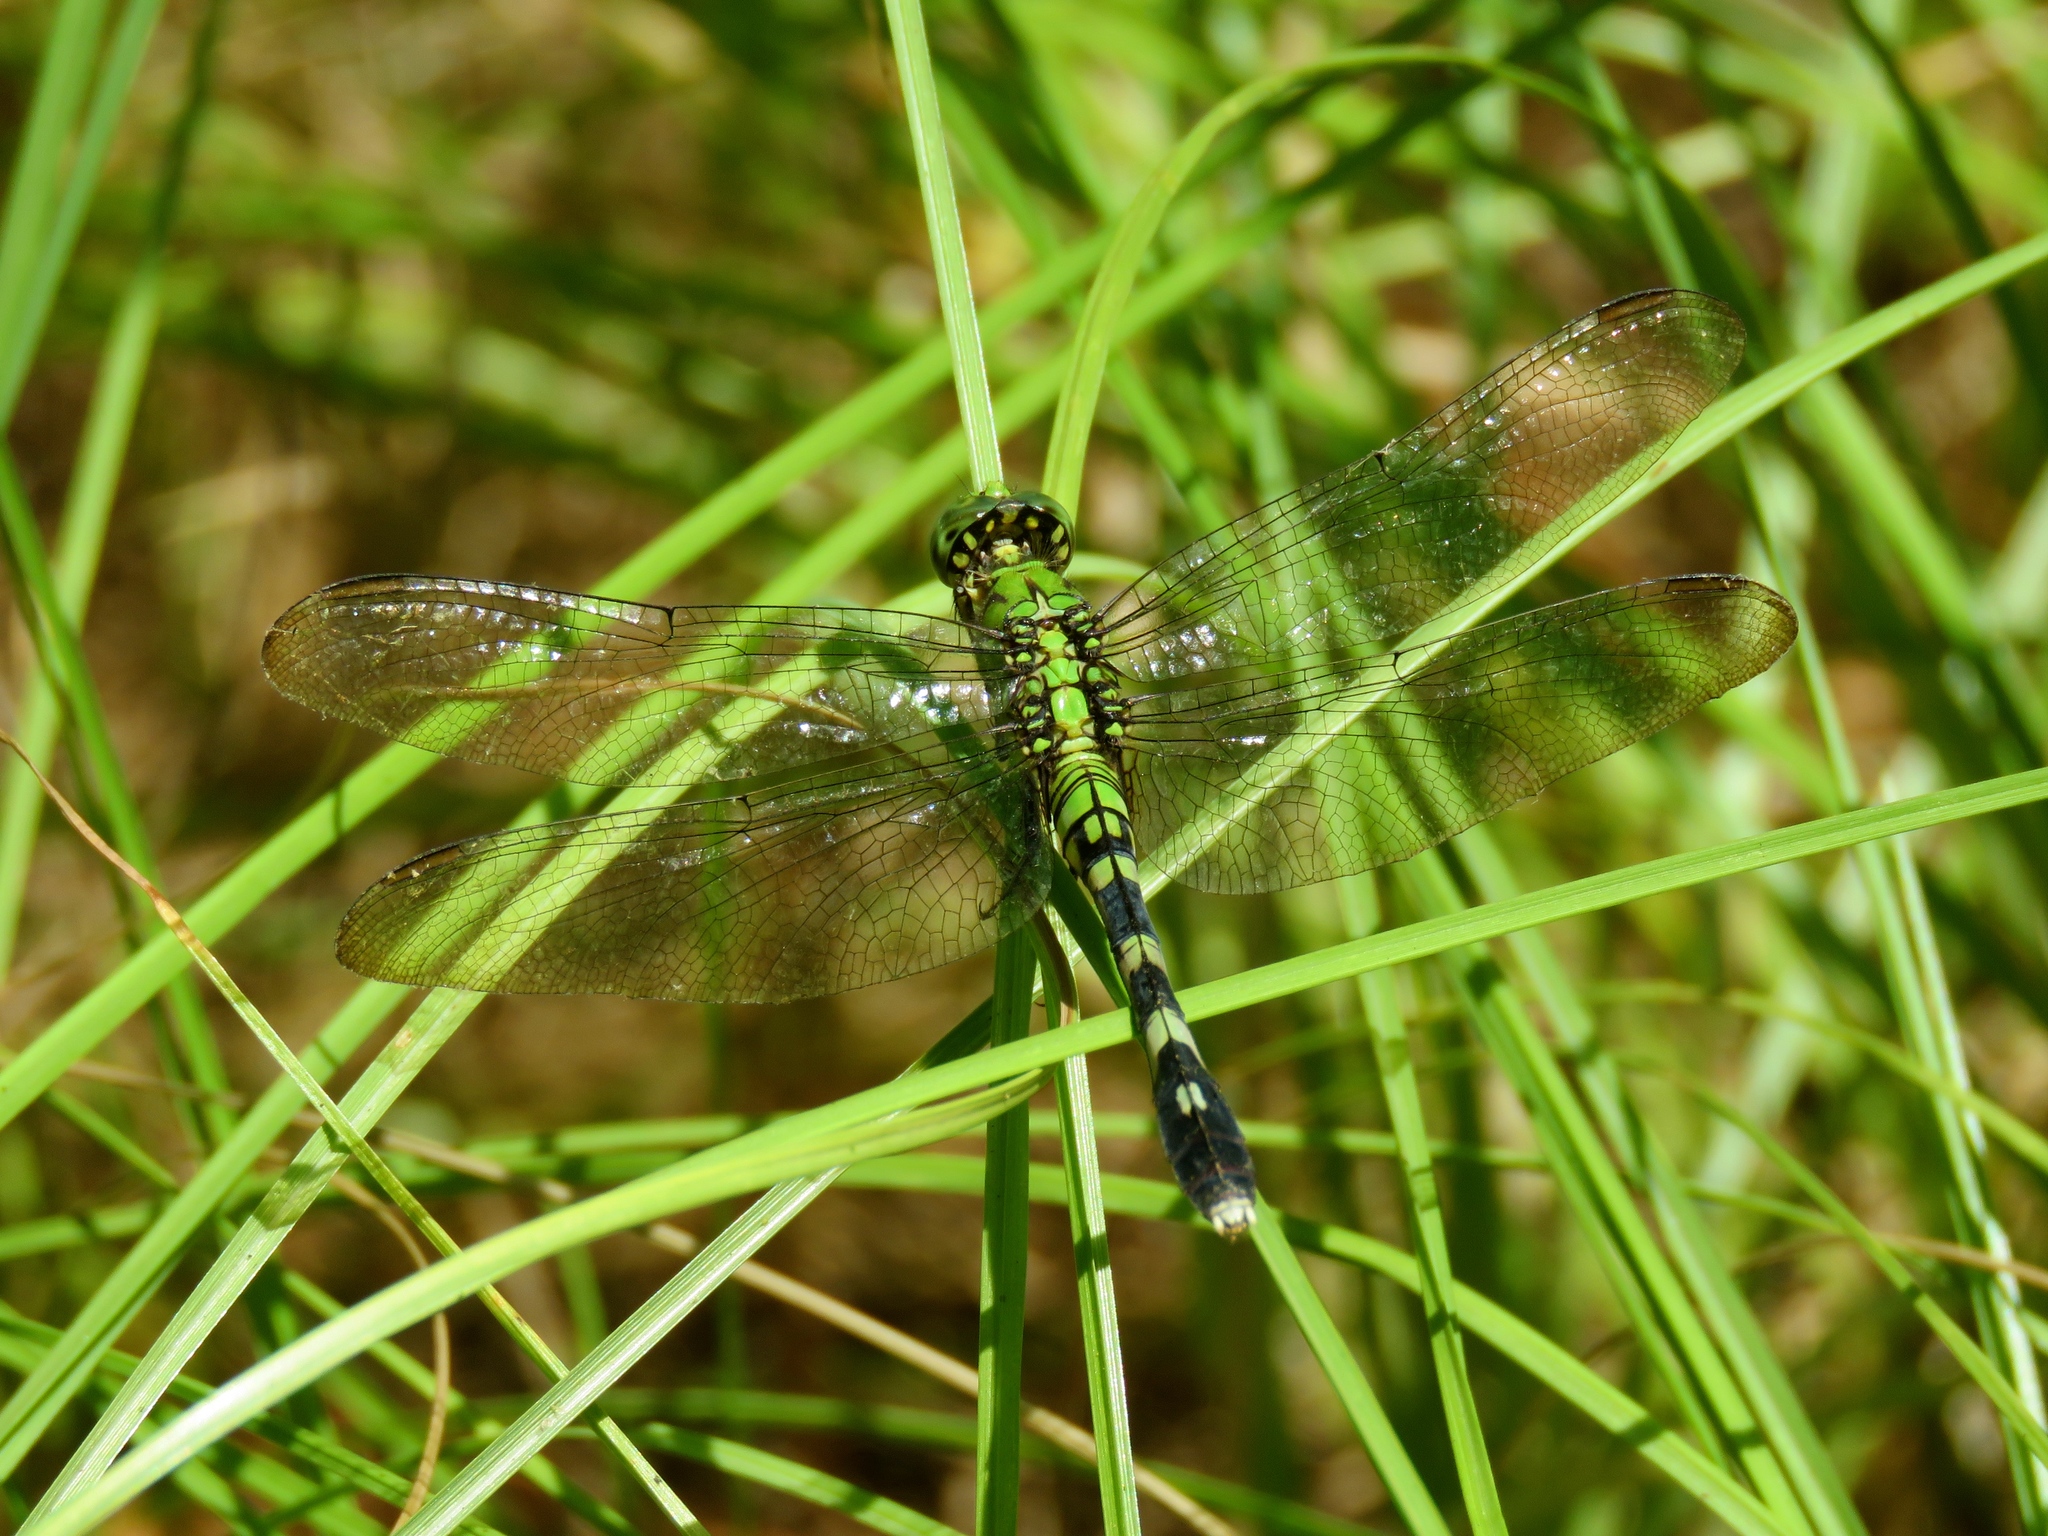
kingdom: Animalia
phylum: Arthropoda
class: Insecta
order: Odonata
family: Libellulidae
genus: Erythemis
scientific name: Erythemis simplicicollis
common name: Eastern pondhawk
